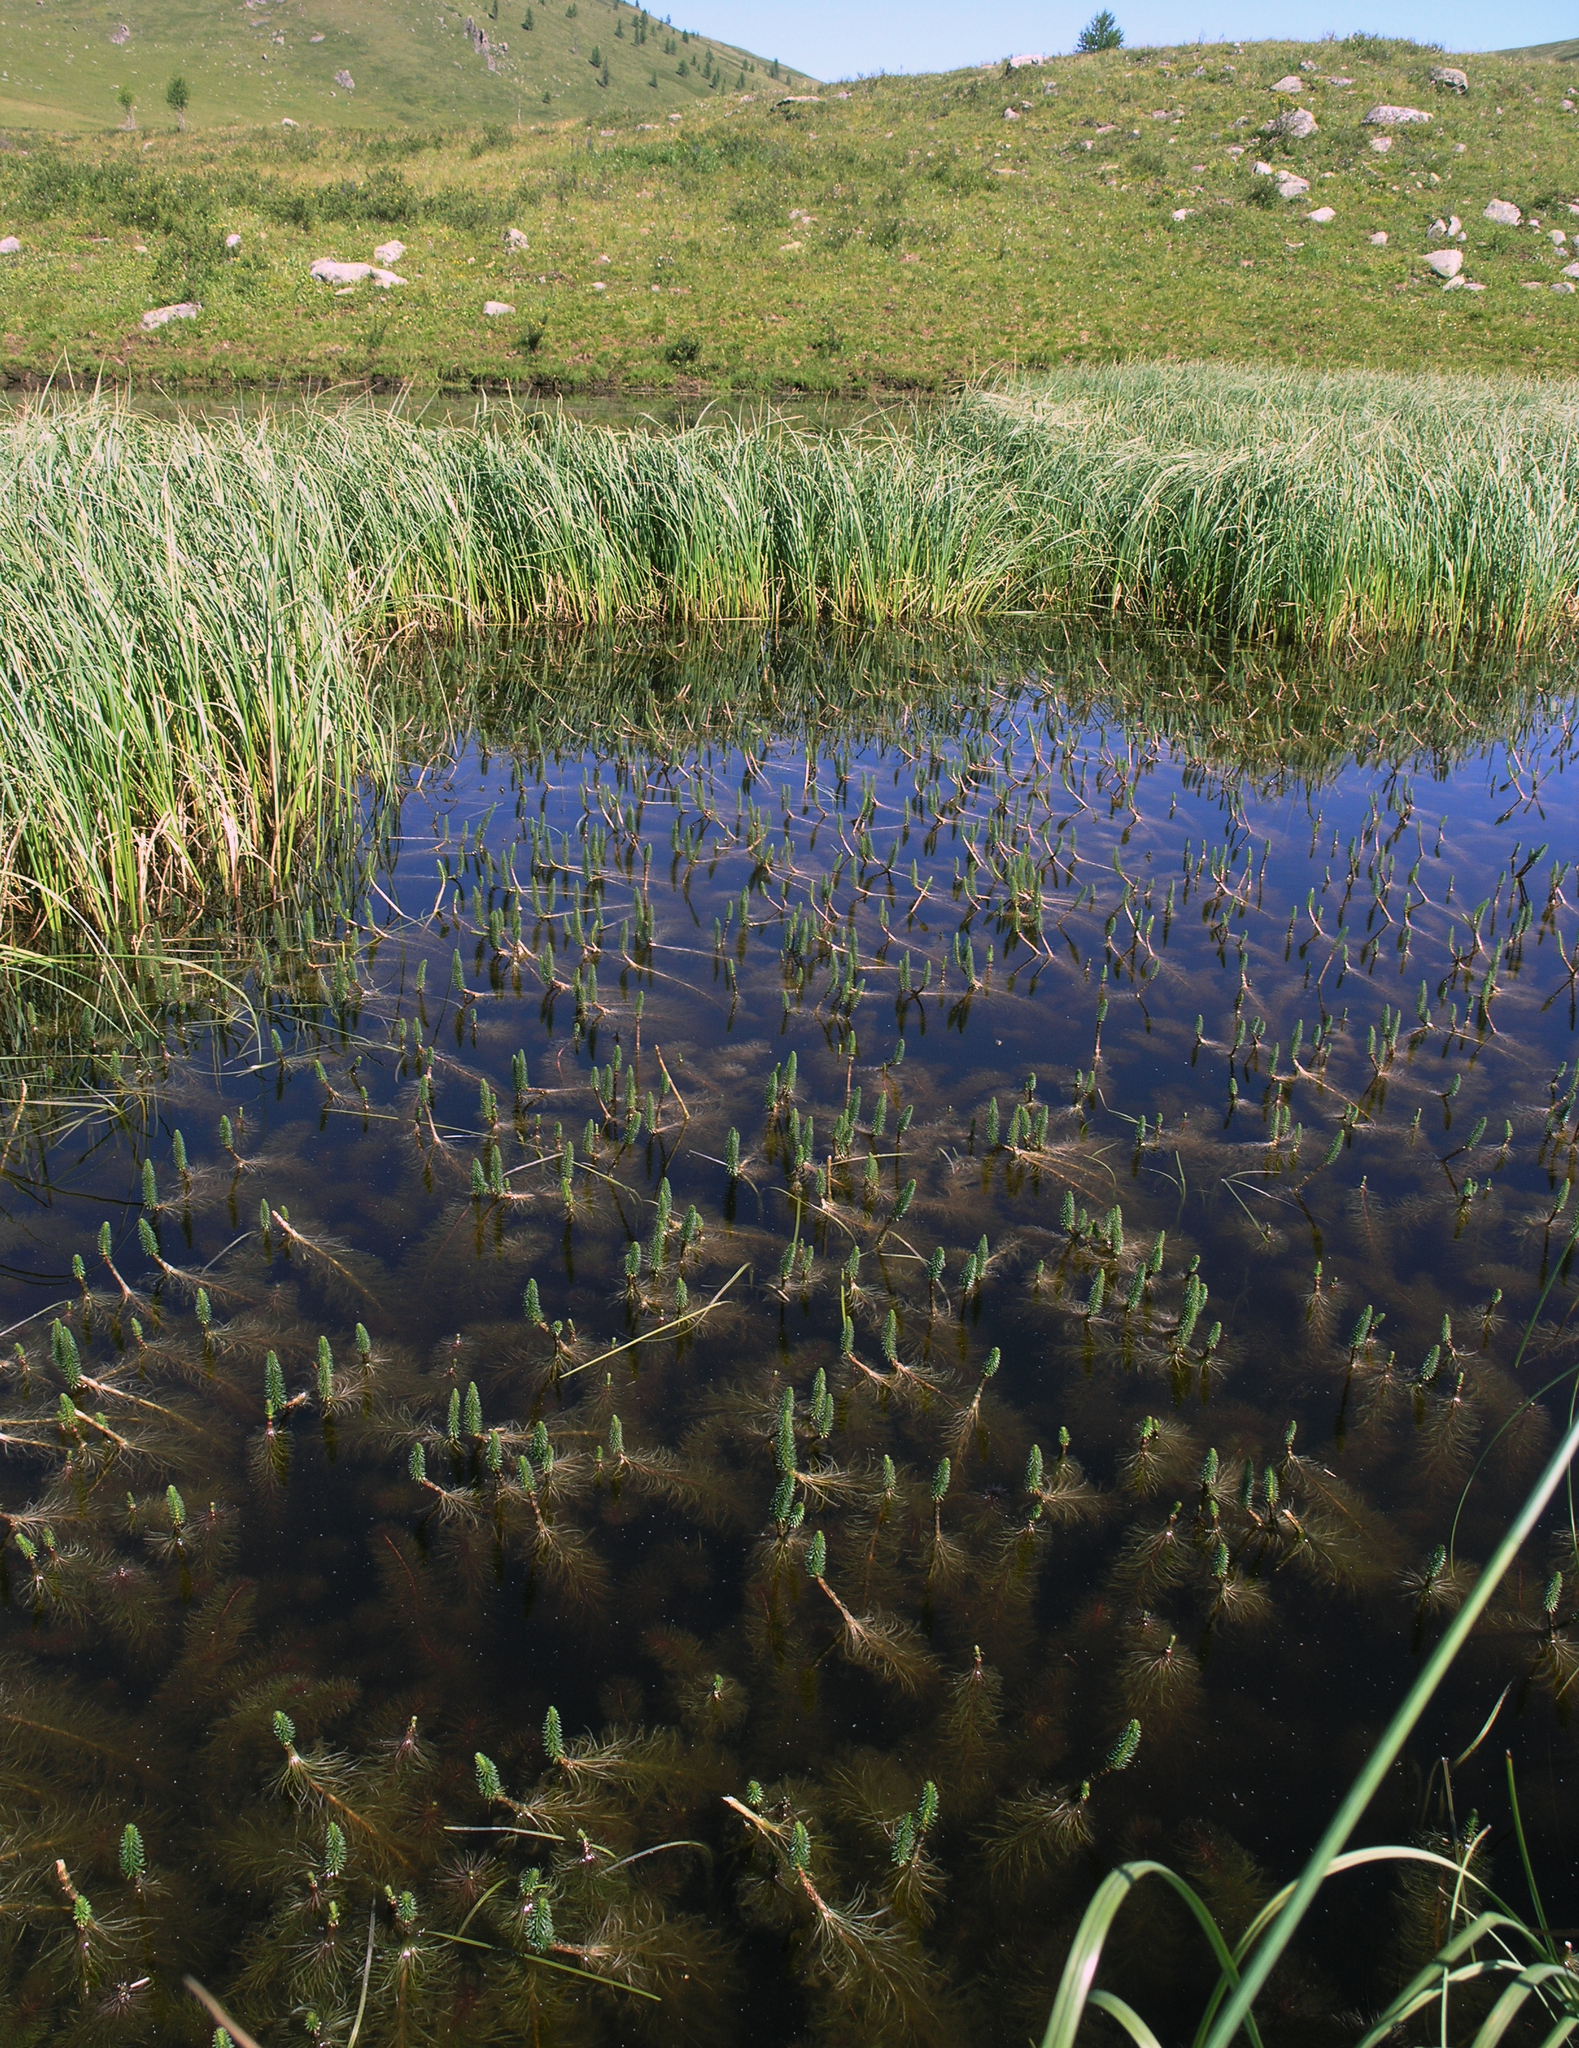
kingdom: Plantae
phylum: Tracheophyta
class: Magnoliopsida
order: Lamiales
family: Plantaginaceae
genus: Hippuris
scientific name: Hippuris vulgaris
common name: Mare's-tail
